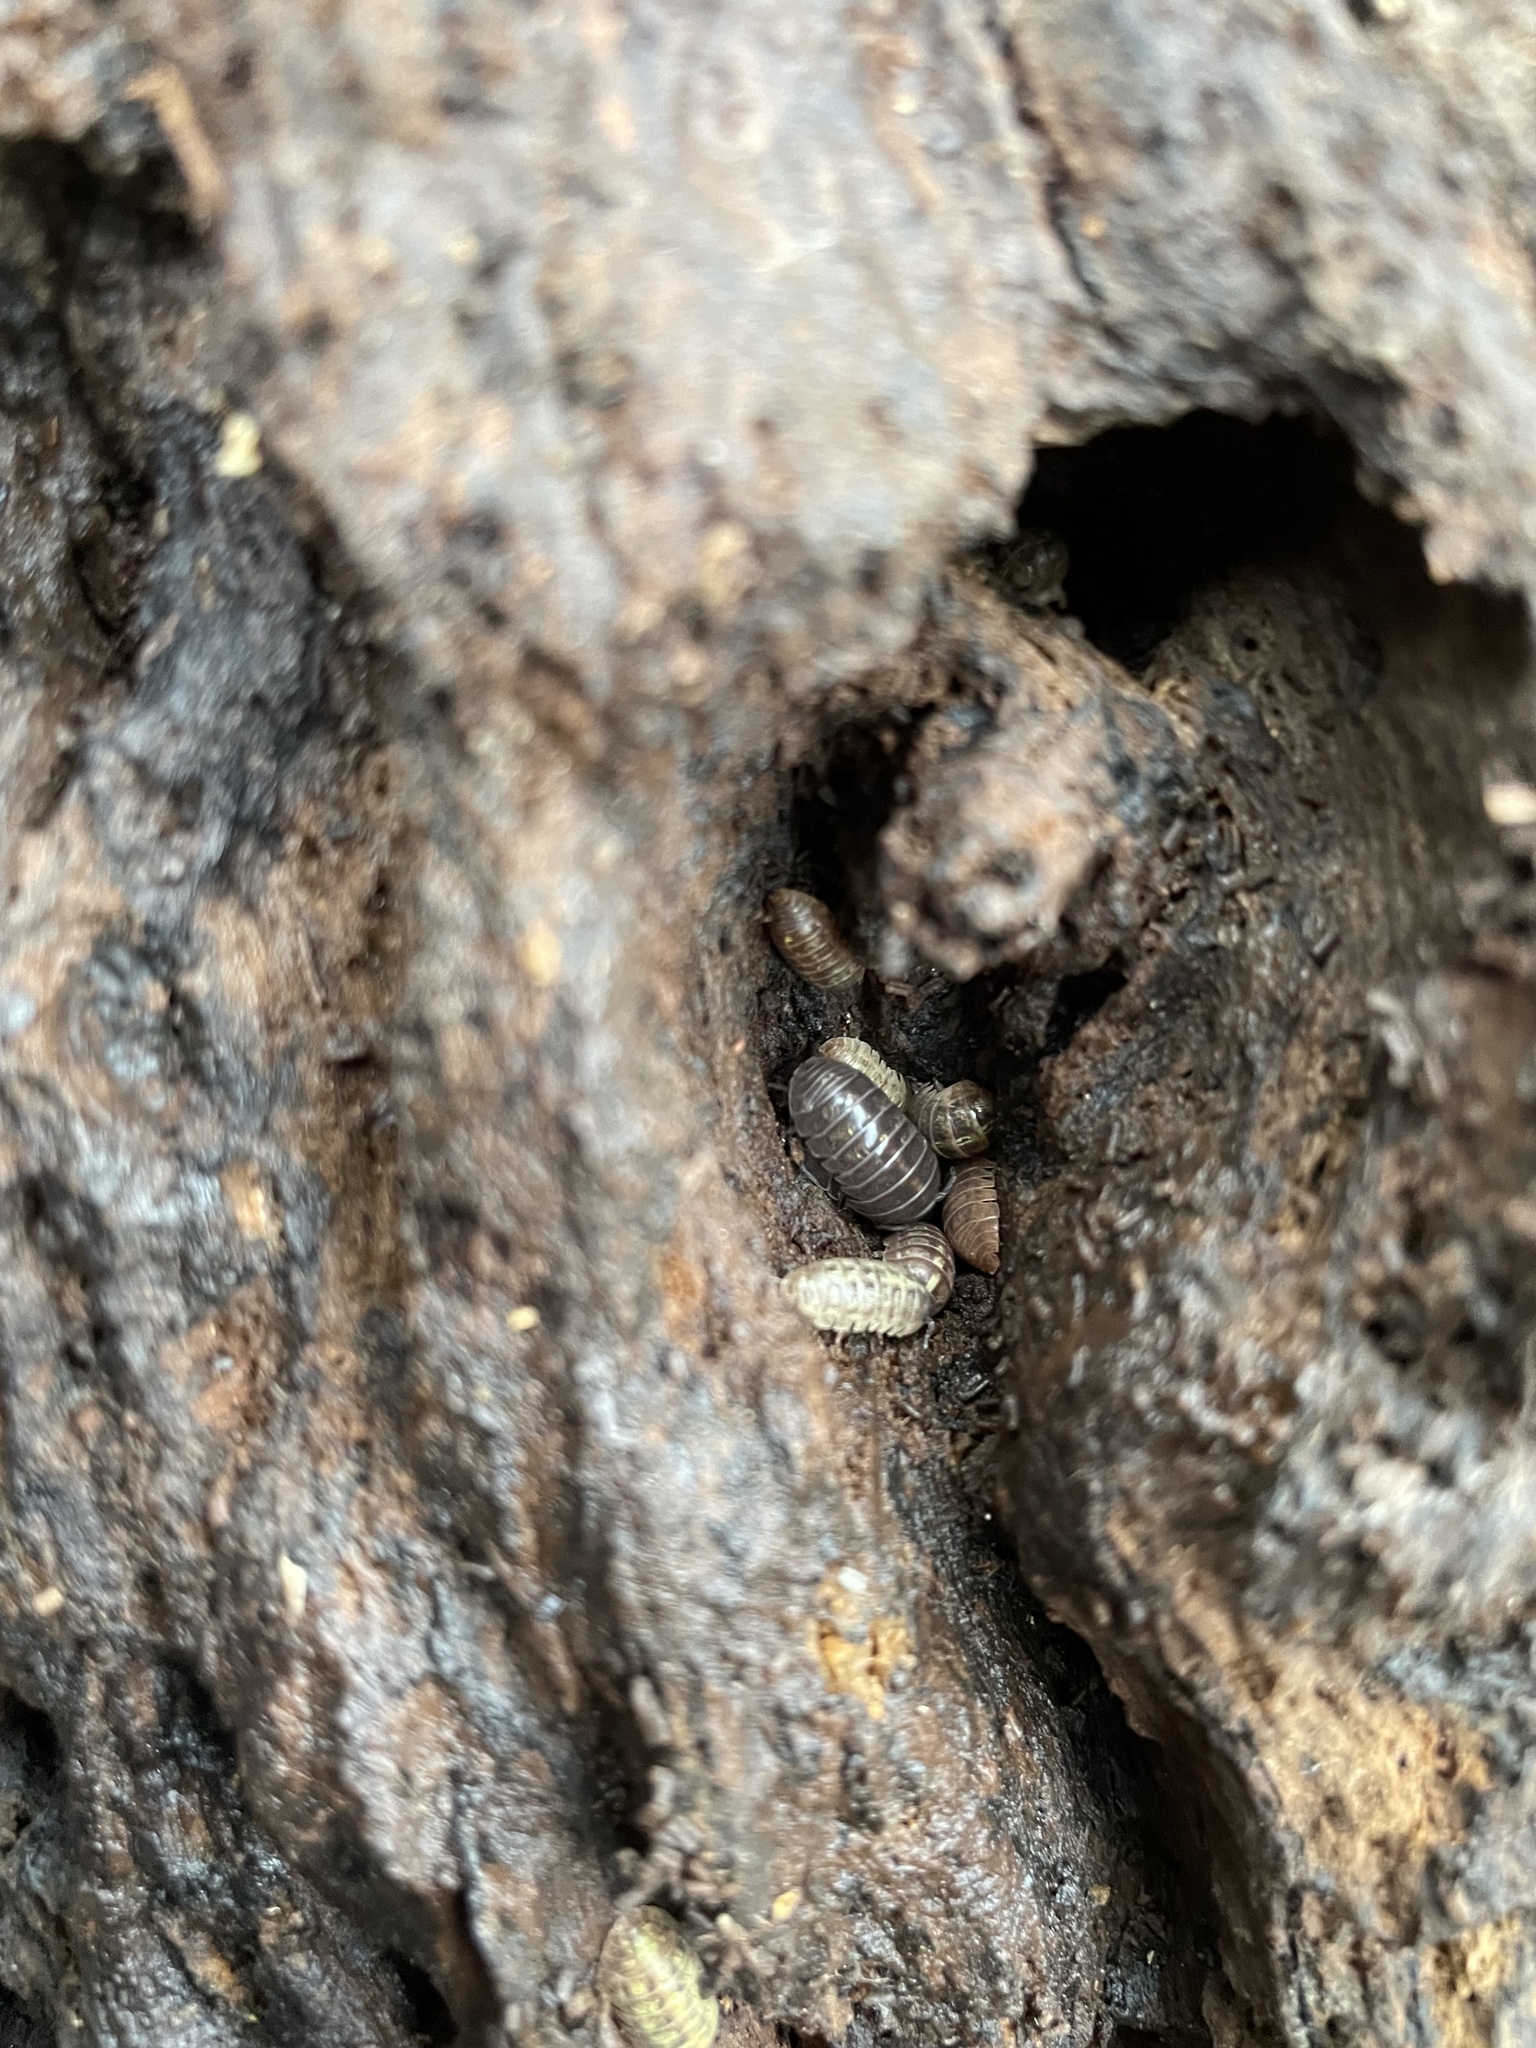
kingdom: Animalia
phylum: Arthropoda
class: Malacostraca
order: Isopoda
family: Armadillidiidae
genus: Armadillidium
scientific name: Armadillidium vulgare
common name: Common pill woodlouse
